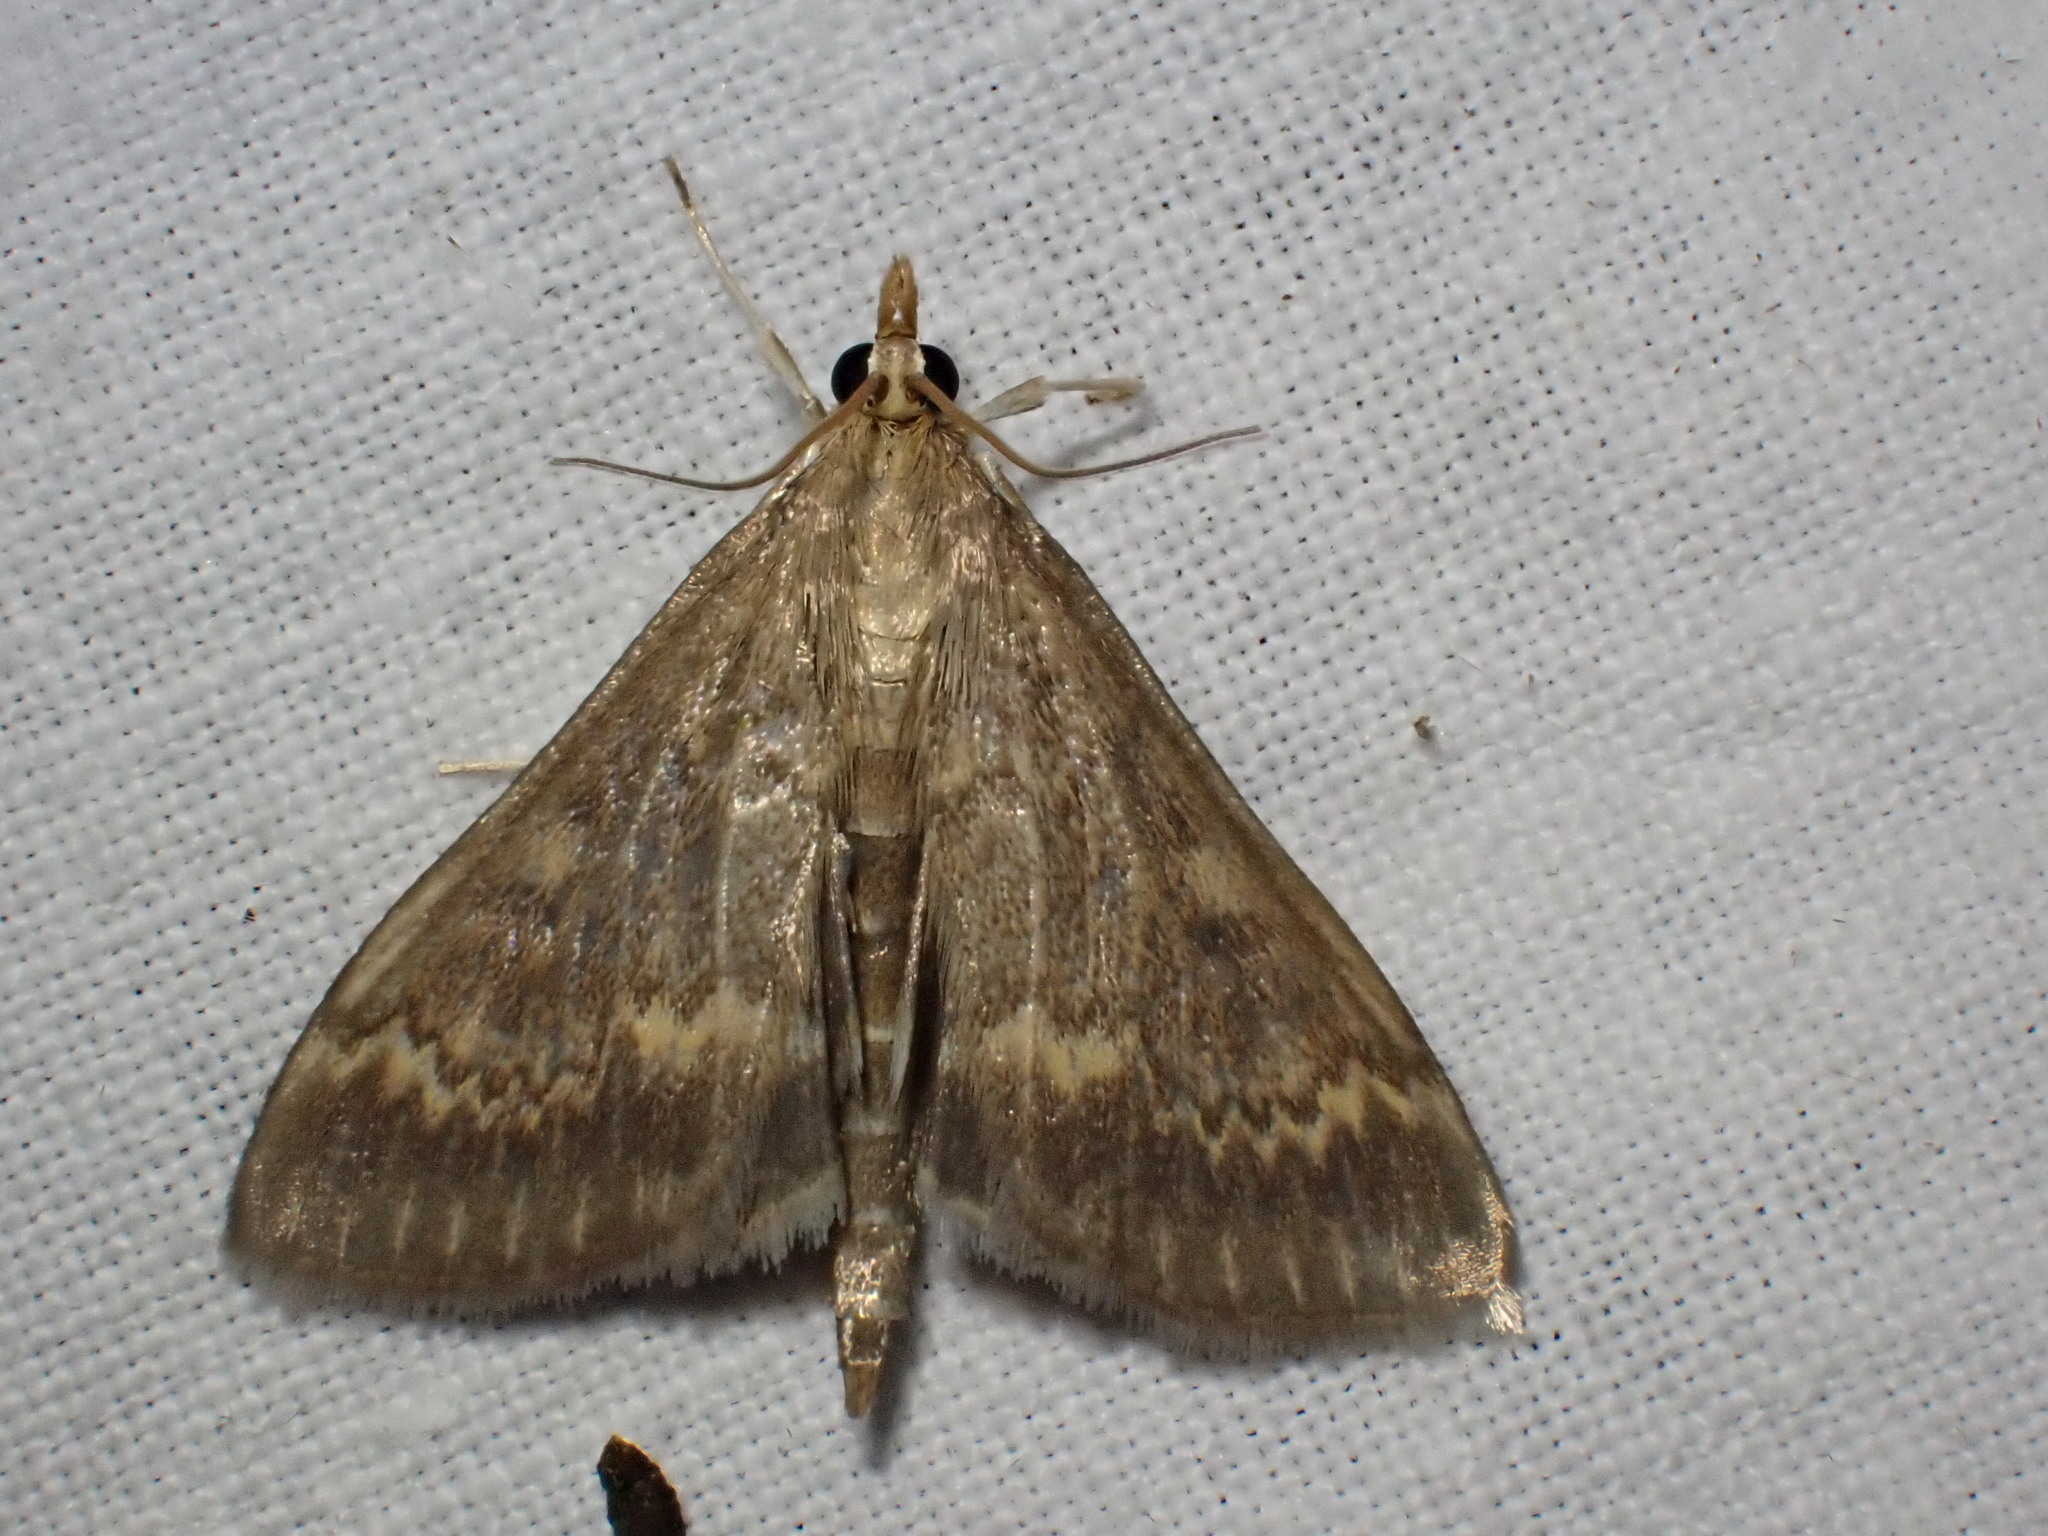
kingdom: Animalia
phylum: Arthropoda
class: Insecta
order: Lepidoptera
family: Crambidae
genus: Ostrinia
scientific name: Ostrinia nubilalis
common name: European corn borer
